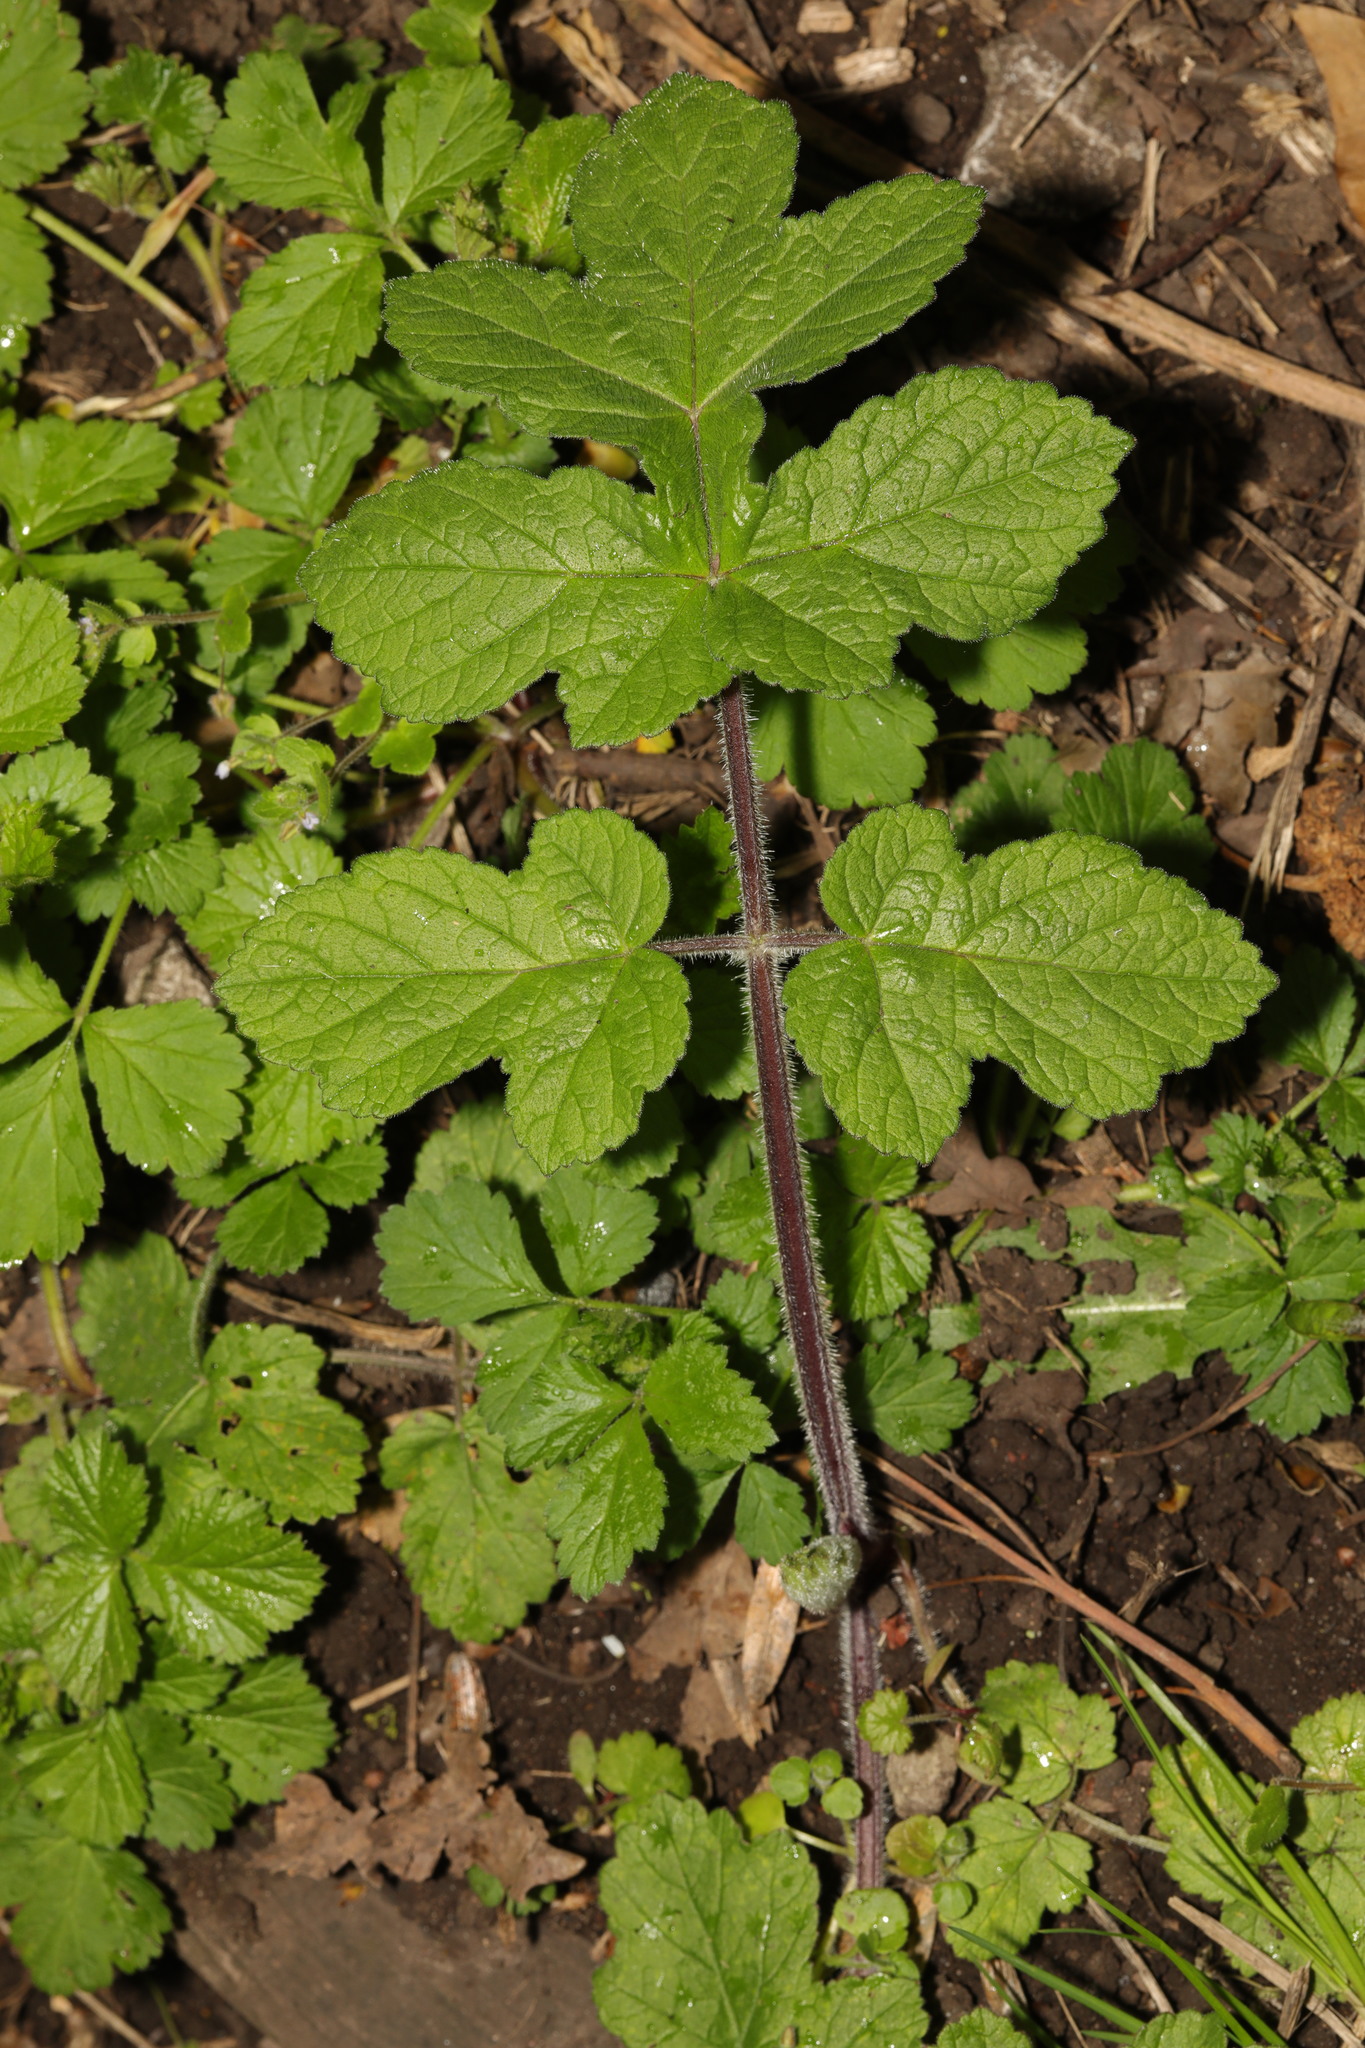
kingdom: Plantae
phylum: Tracheophyta
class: Magnoliopsida
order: Apiales
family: Apiaceae
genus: Heracleum
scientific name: Heracleum sphondylium
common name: Hogweed
